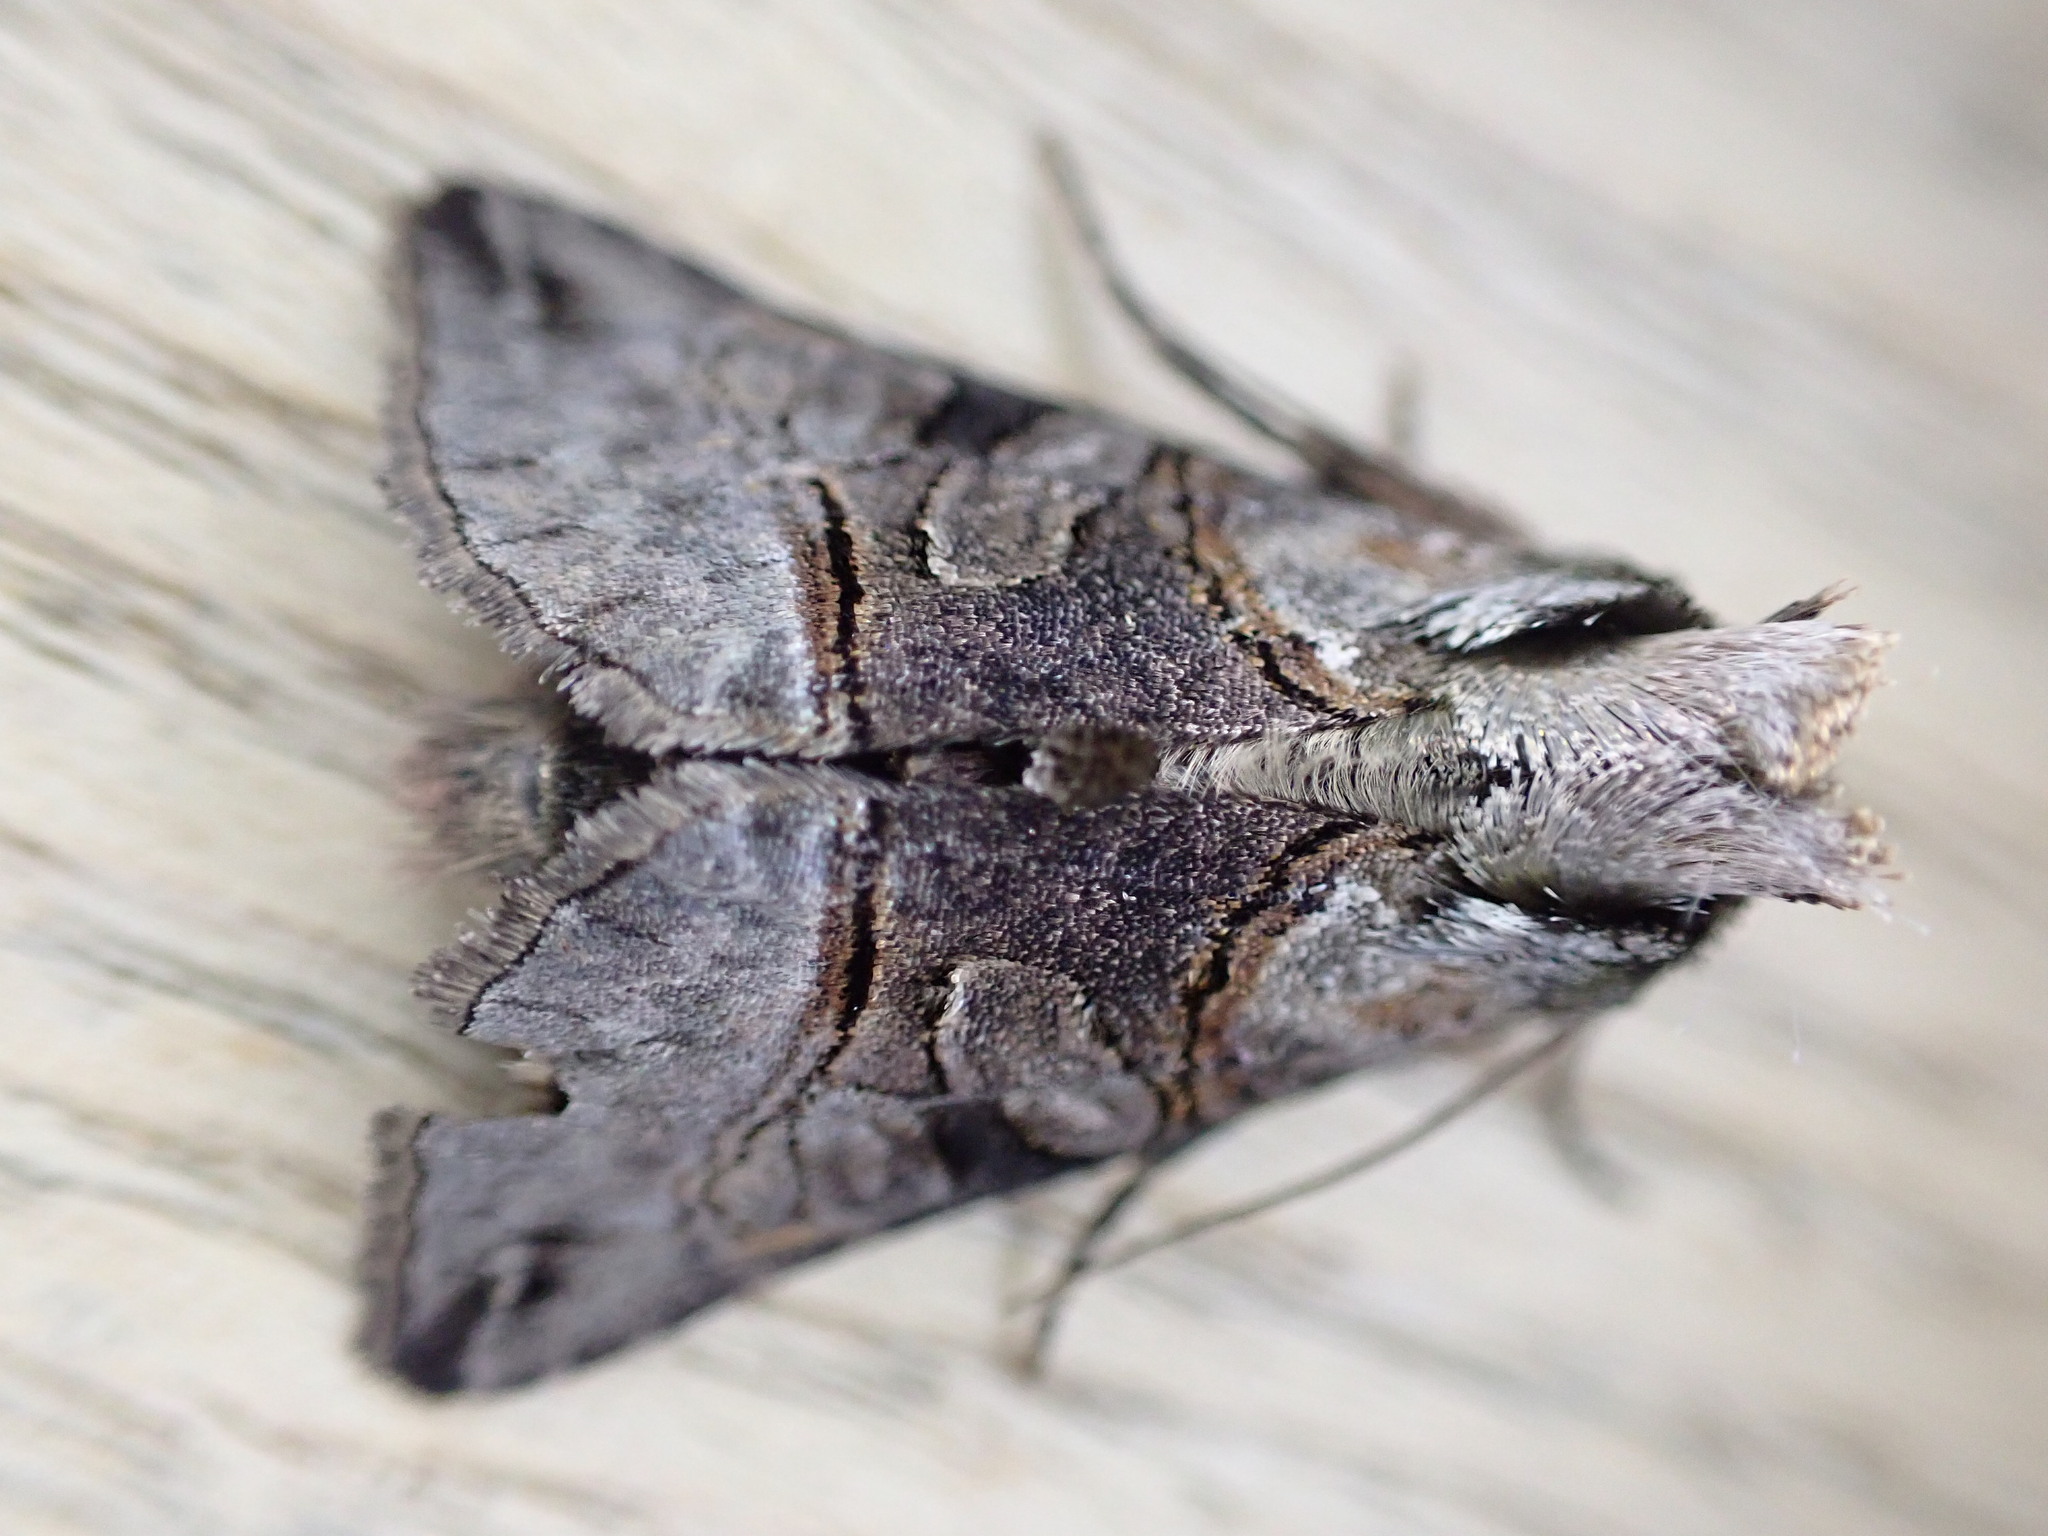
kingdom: Animalia
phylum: Arthropoda
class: Insecta
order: Lepidoptera
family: Noctuidae
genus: Abrostola
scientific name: Abrostola tripartita
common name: Spectacle
